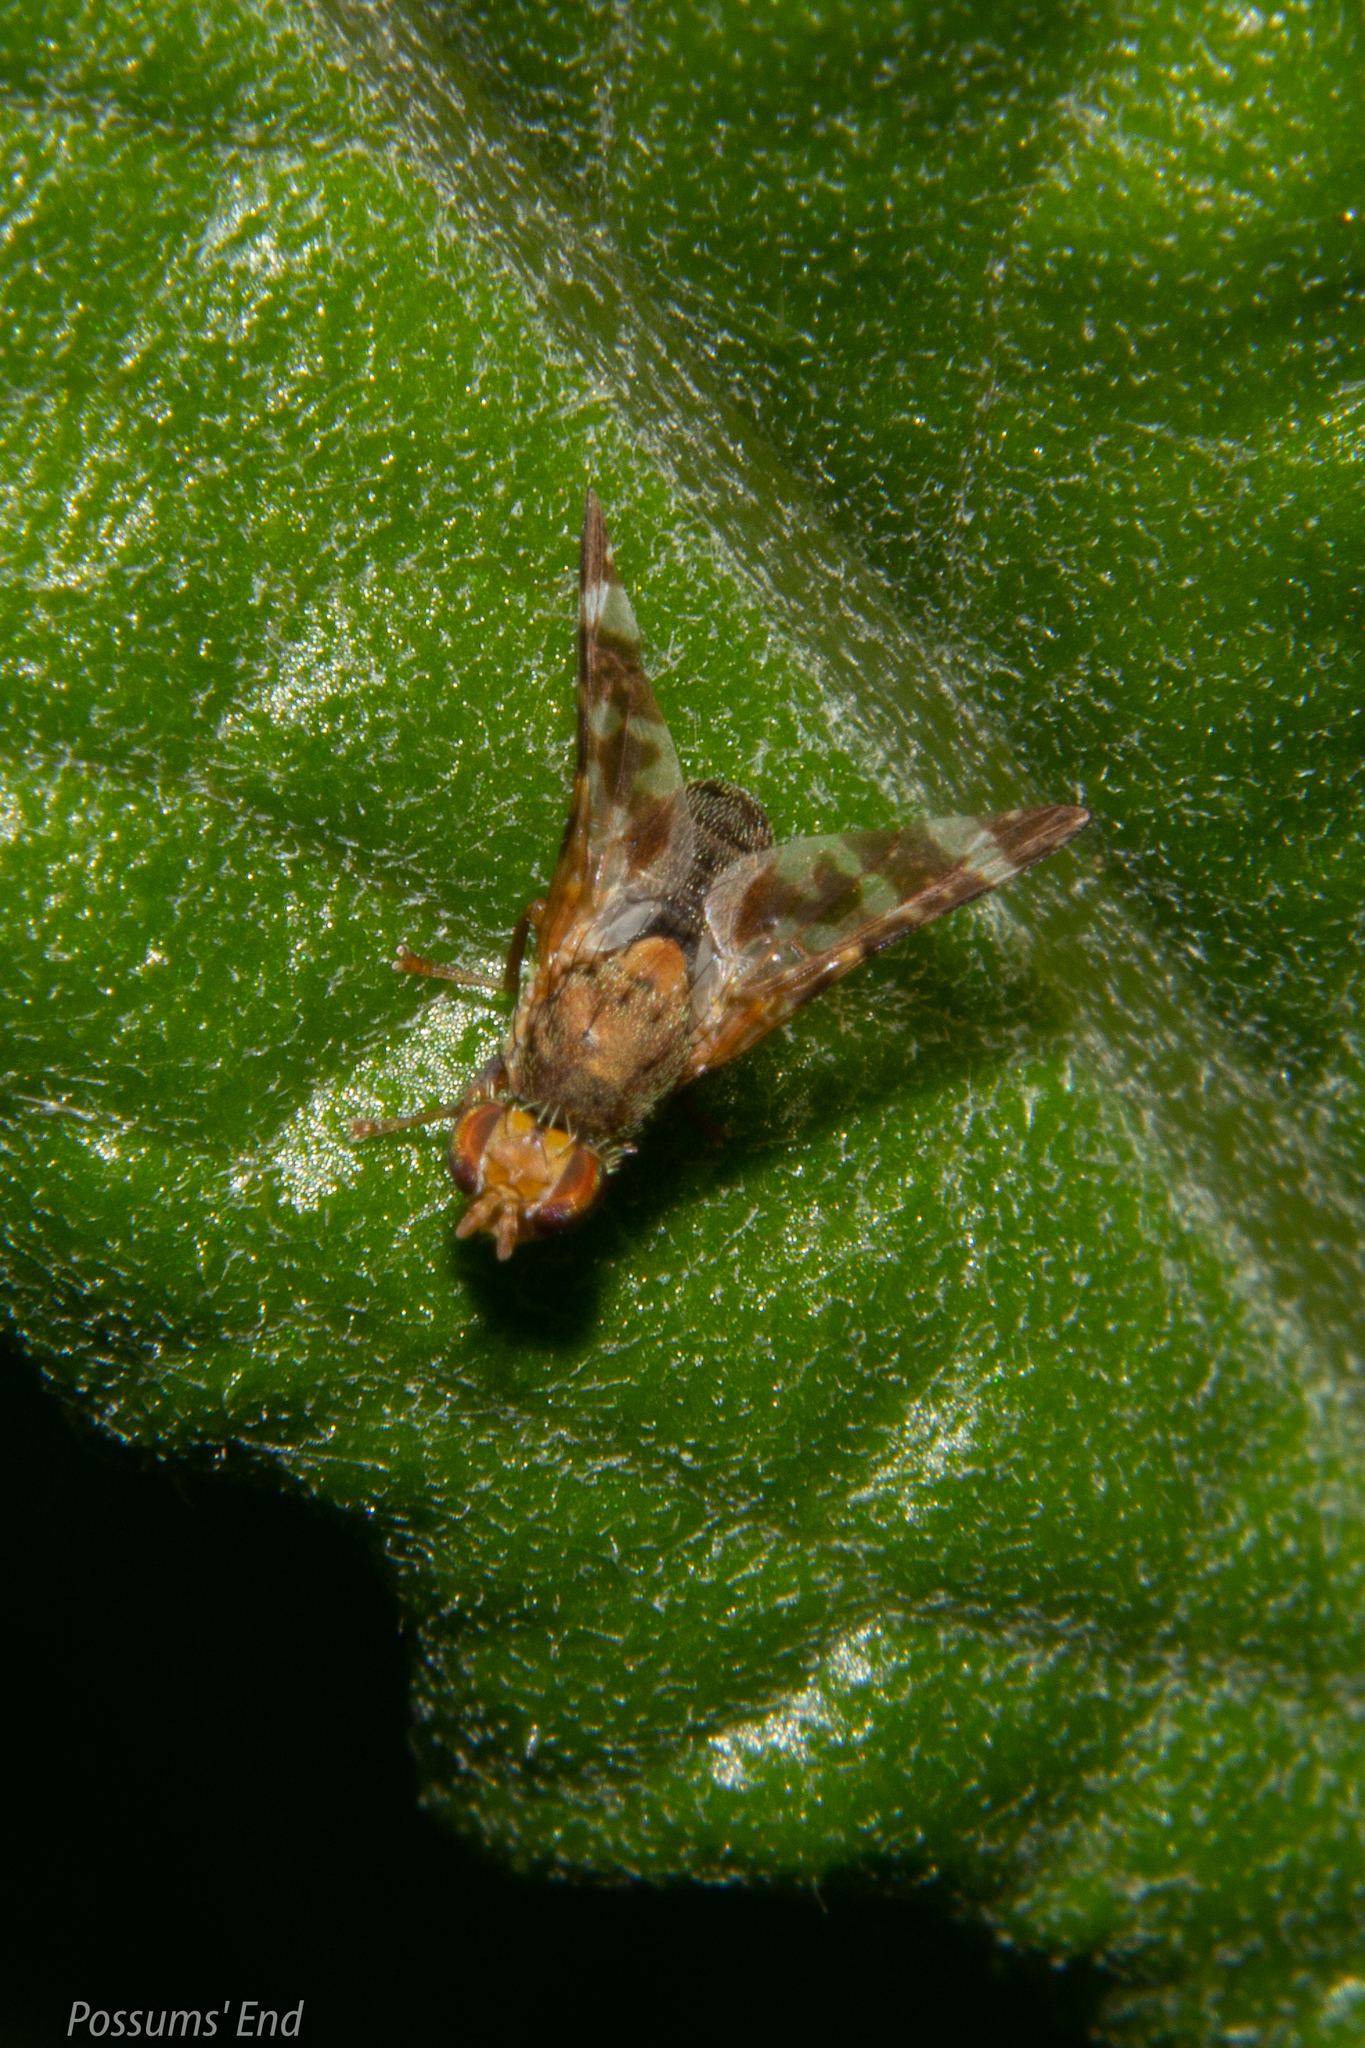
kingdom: Animalia
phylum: Arthropoda
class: Insecta
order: Diptera
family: Tephritidae
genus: Sphenella
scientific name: Sphenella
